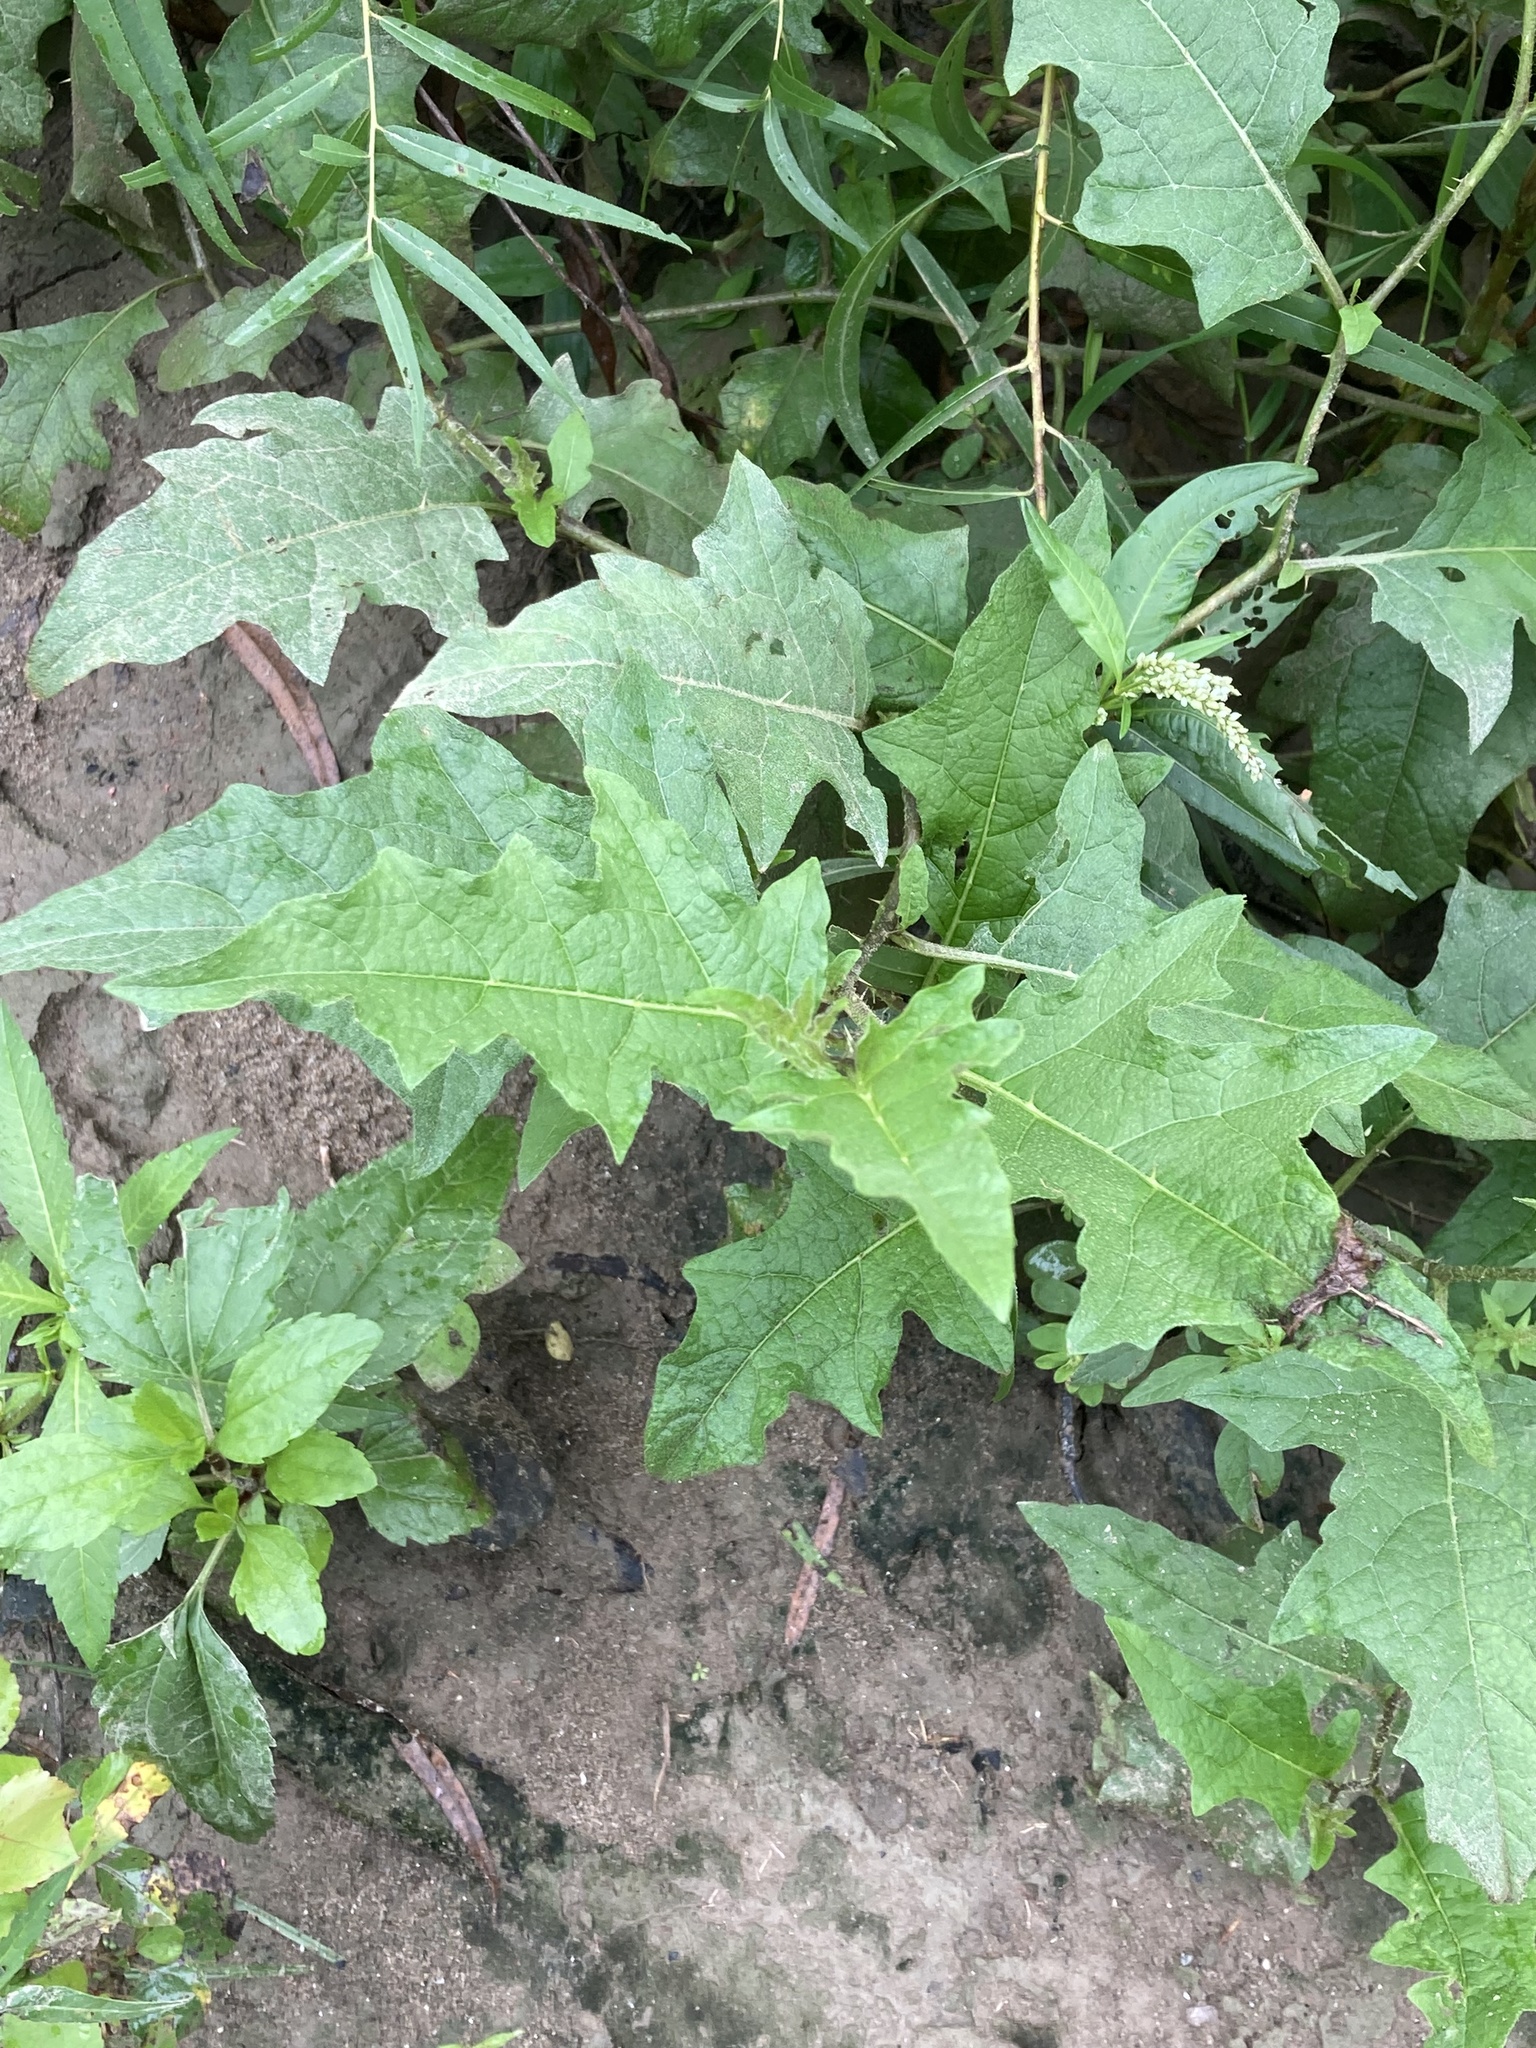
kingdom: Plantae
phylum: Tracheophyta
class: Magnoliopsida
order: Solanales
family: Solanaceae
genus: Solanum
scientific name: Solanum carolinense
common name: Horse-nettle
